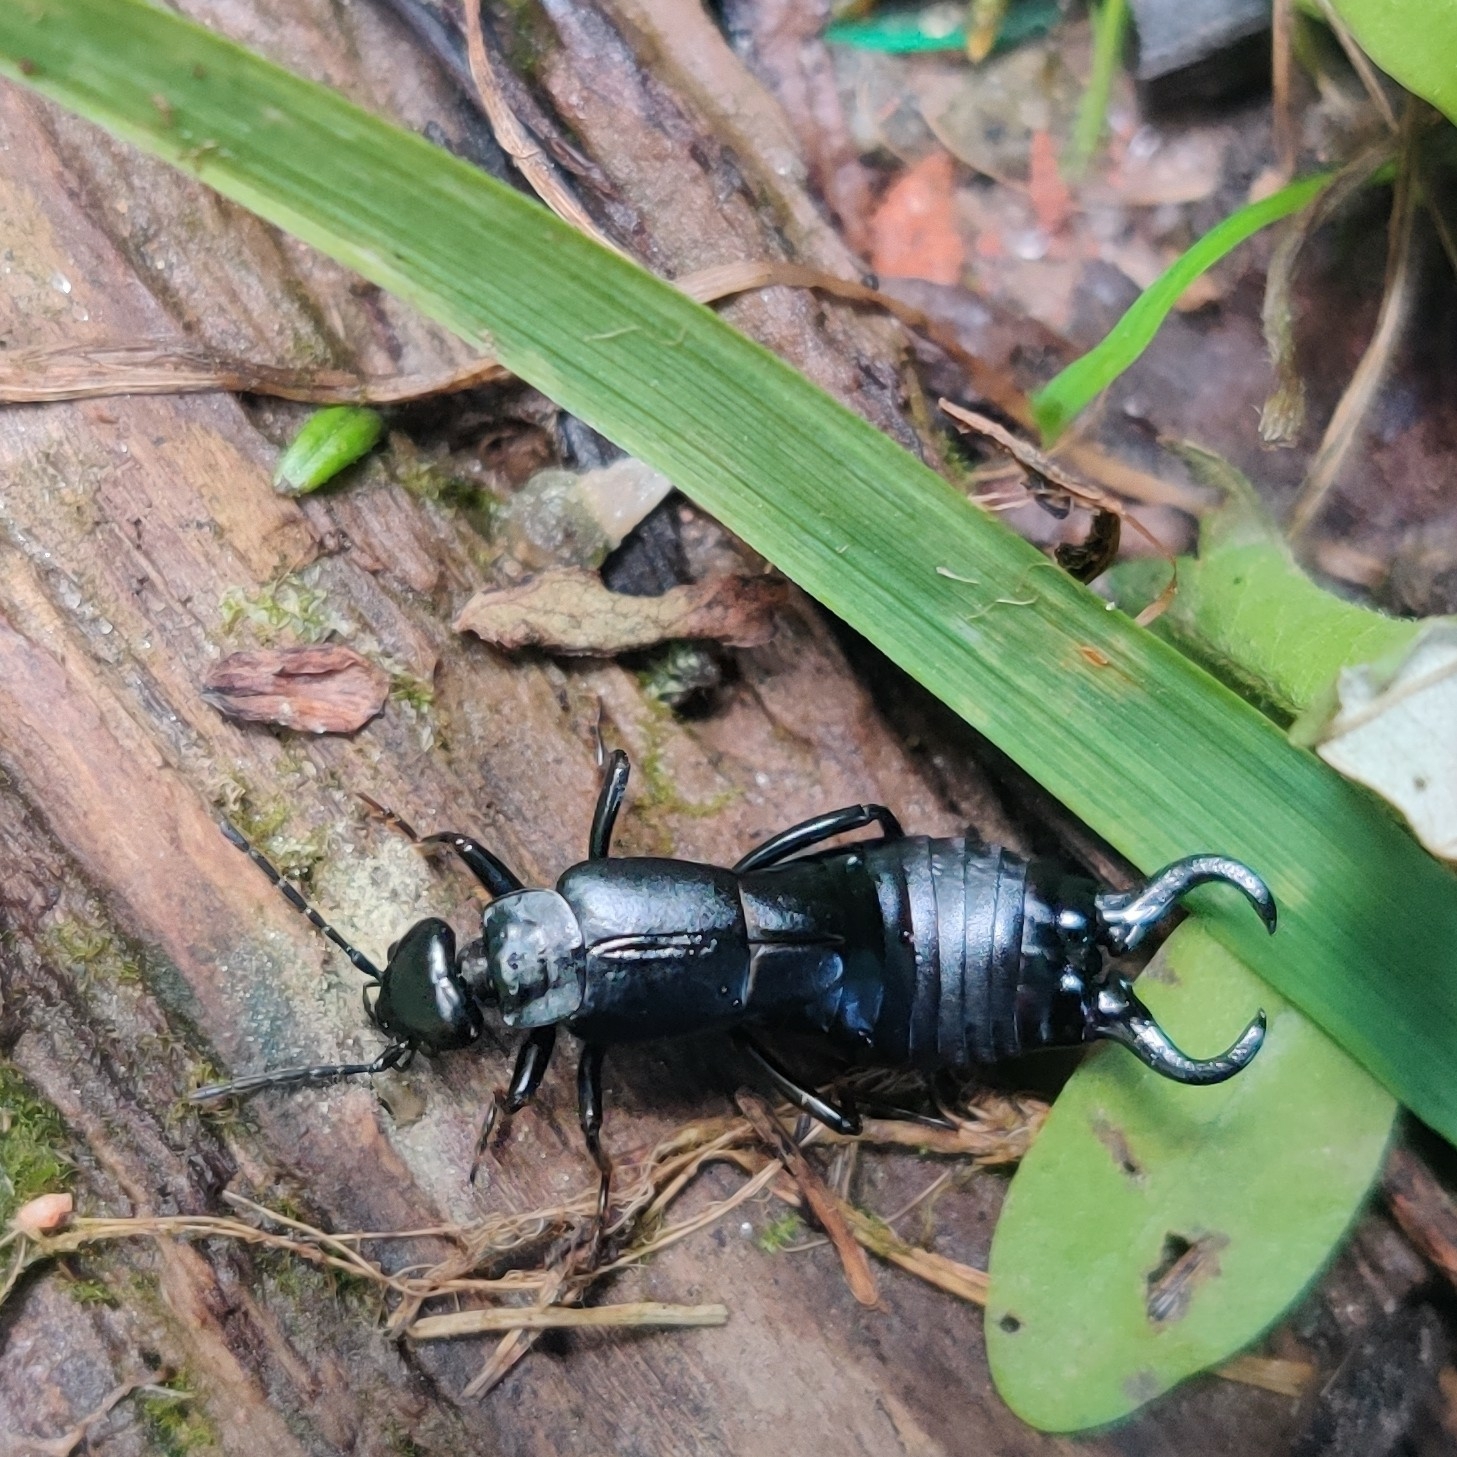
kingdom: Animalia
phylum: Arthropoda
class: Insecta
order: Dermaptera
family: Forficulidae
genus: Forficula
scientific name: Forficula schlagintweiti
